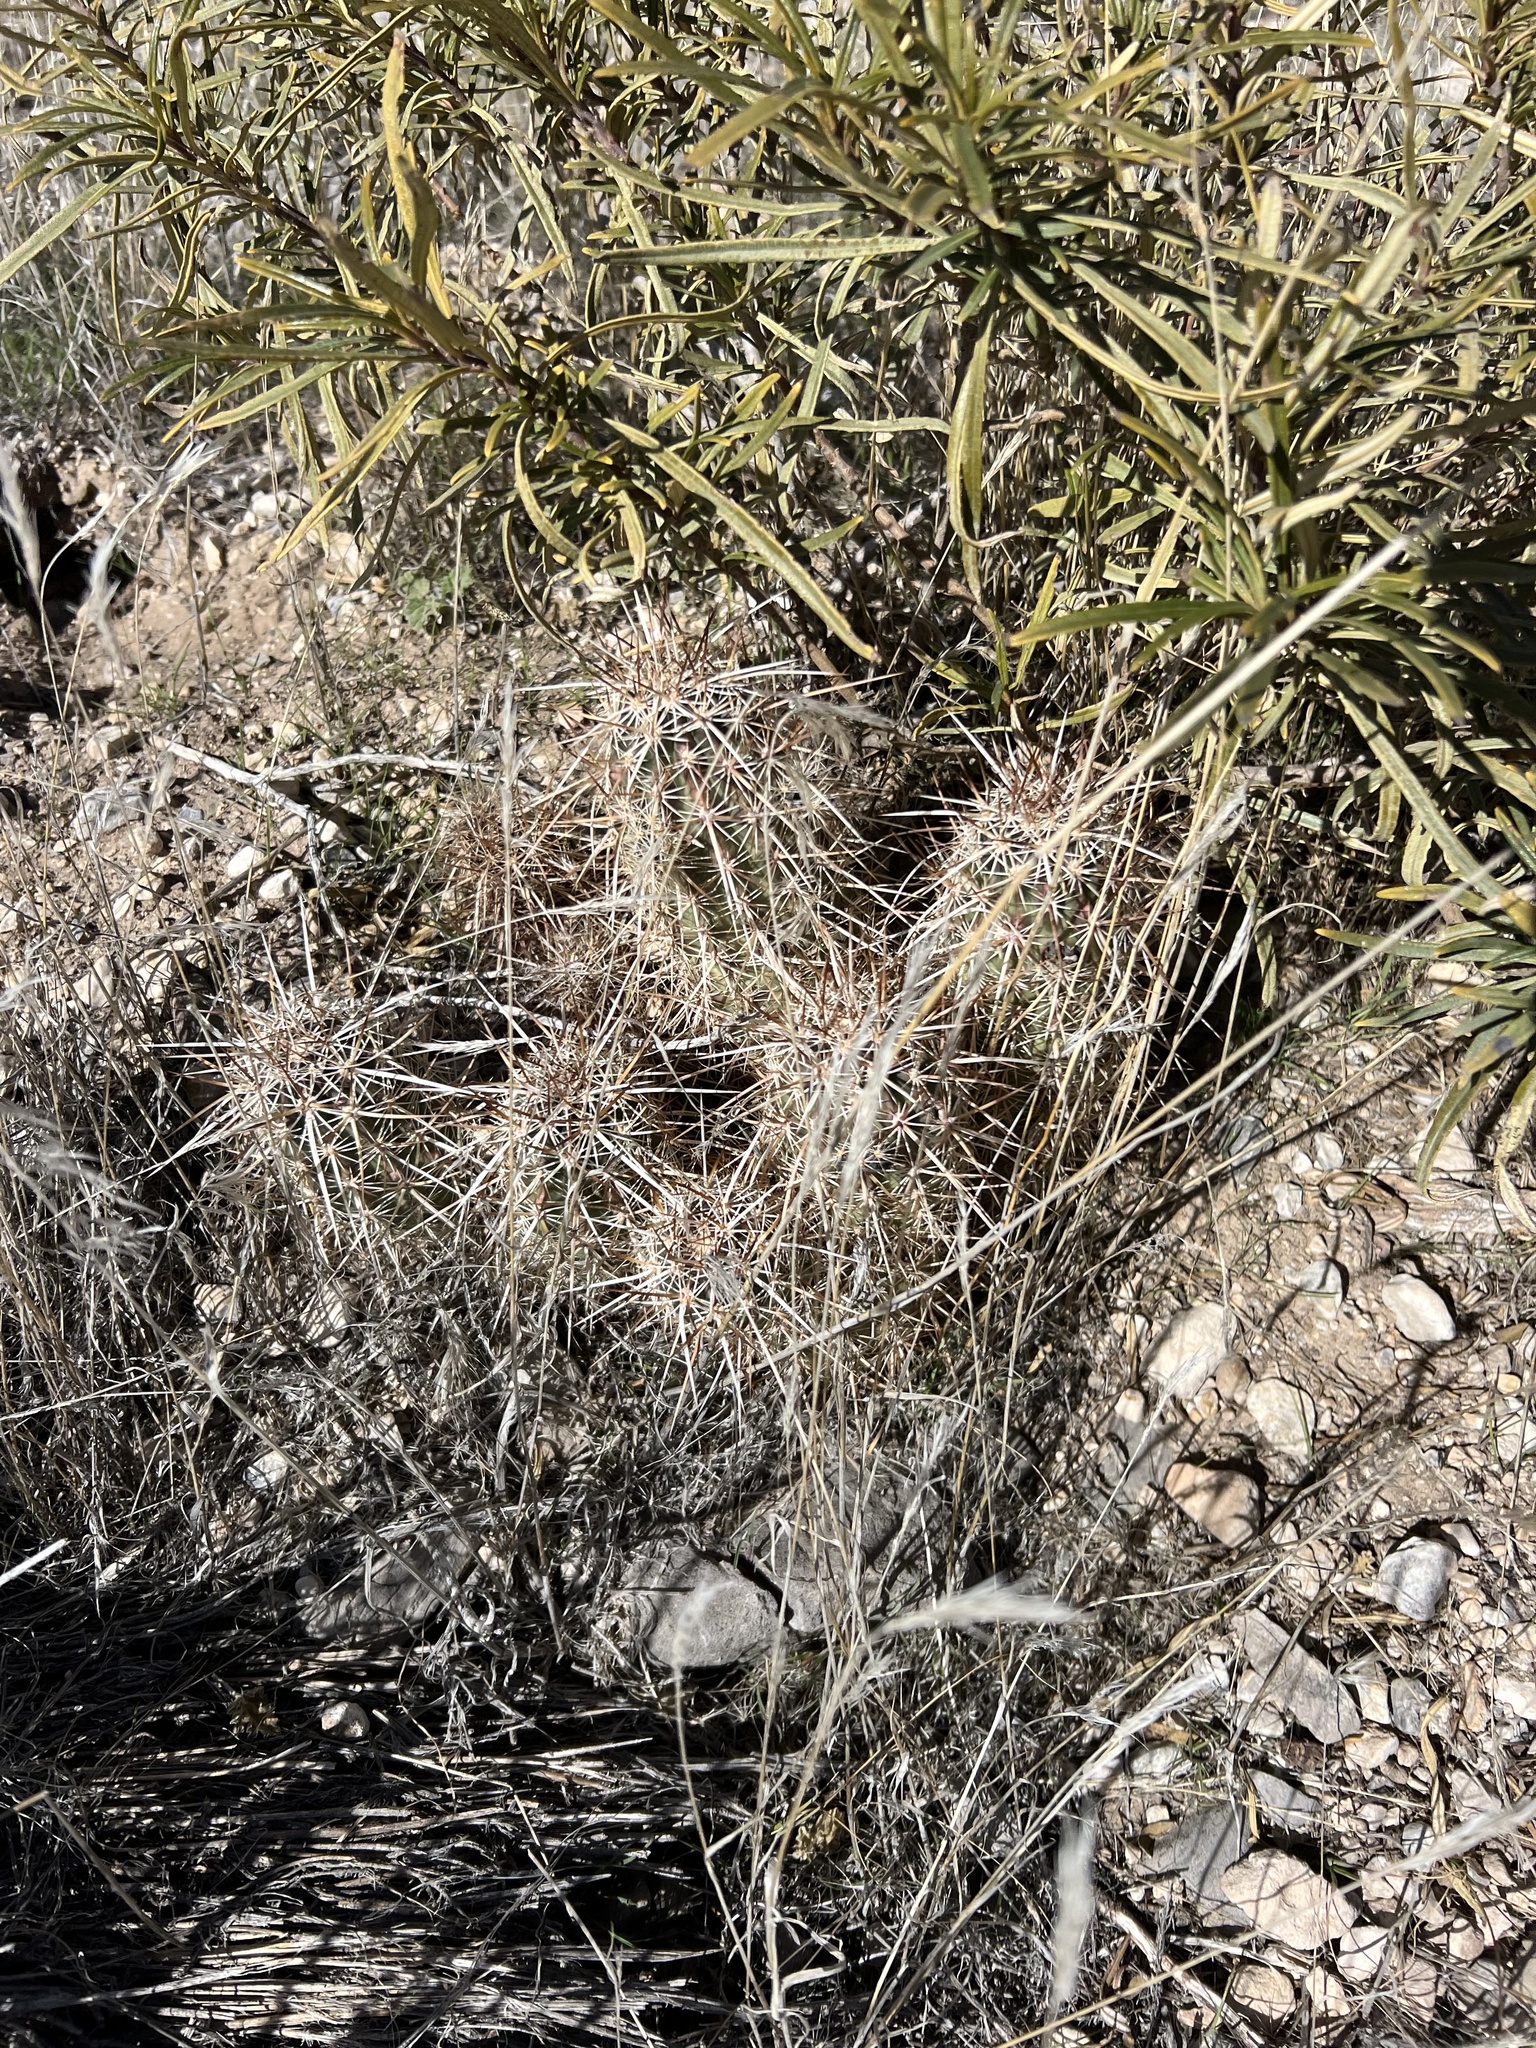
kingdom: Plantae
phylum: Tracheophyta
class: Magnoliopsida
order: Caryophyllales
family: Cactaceae
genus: Echinocereus
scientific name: Echinocereus engelmannii
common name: Engelmann's hedgehog cactus
